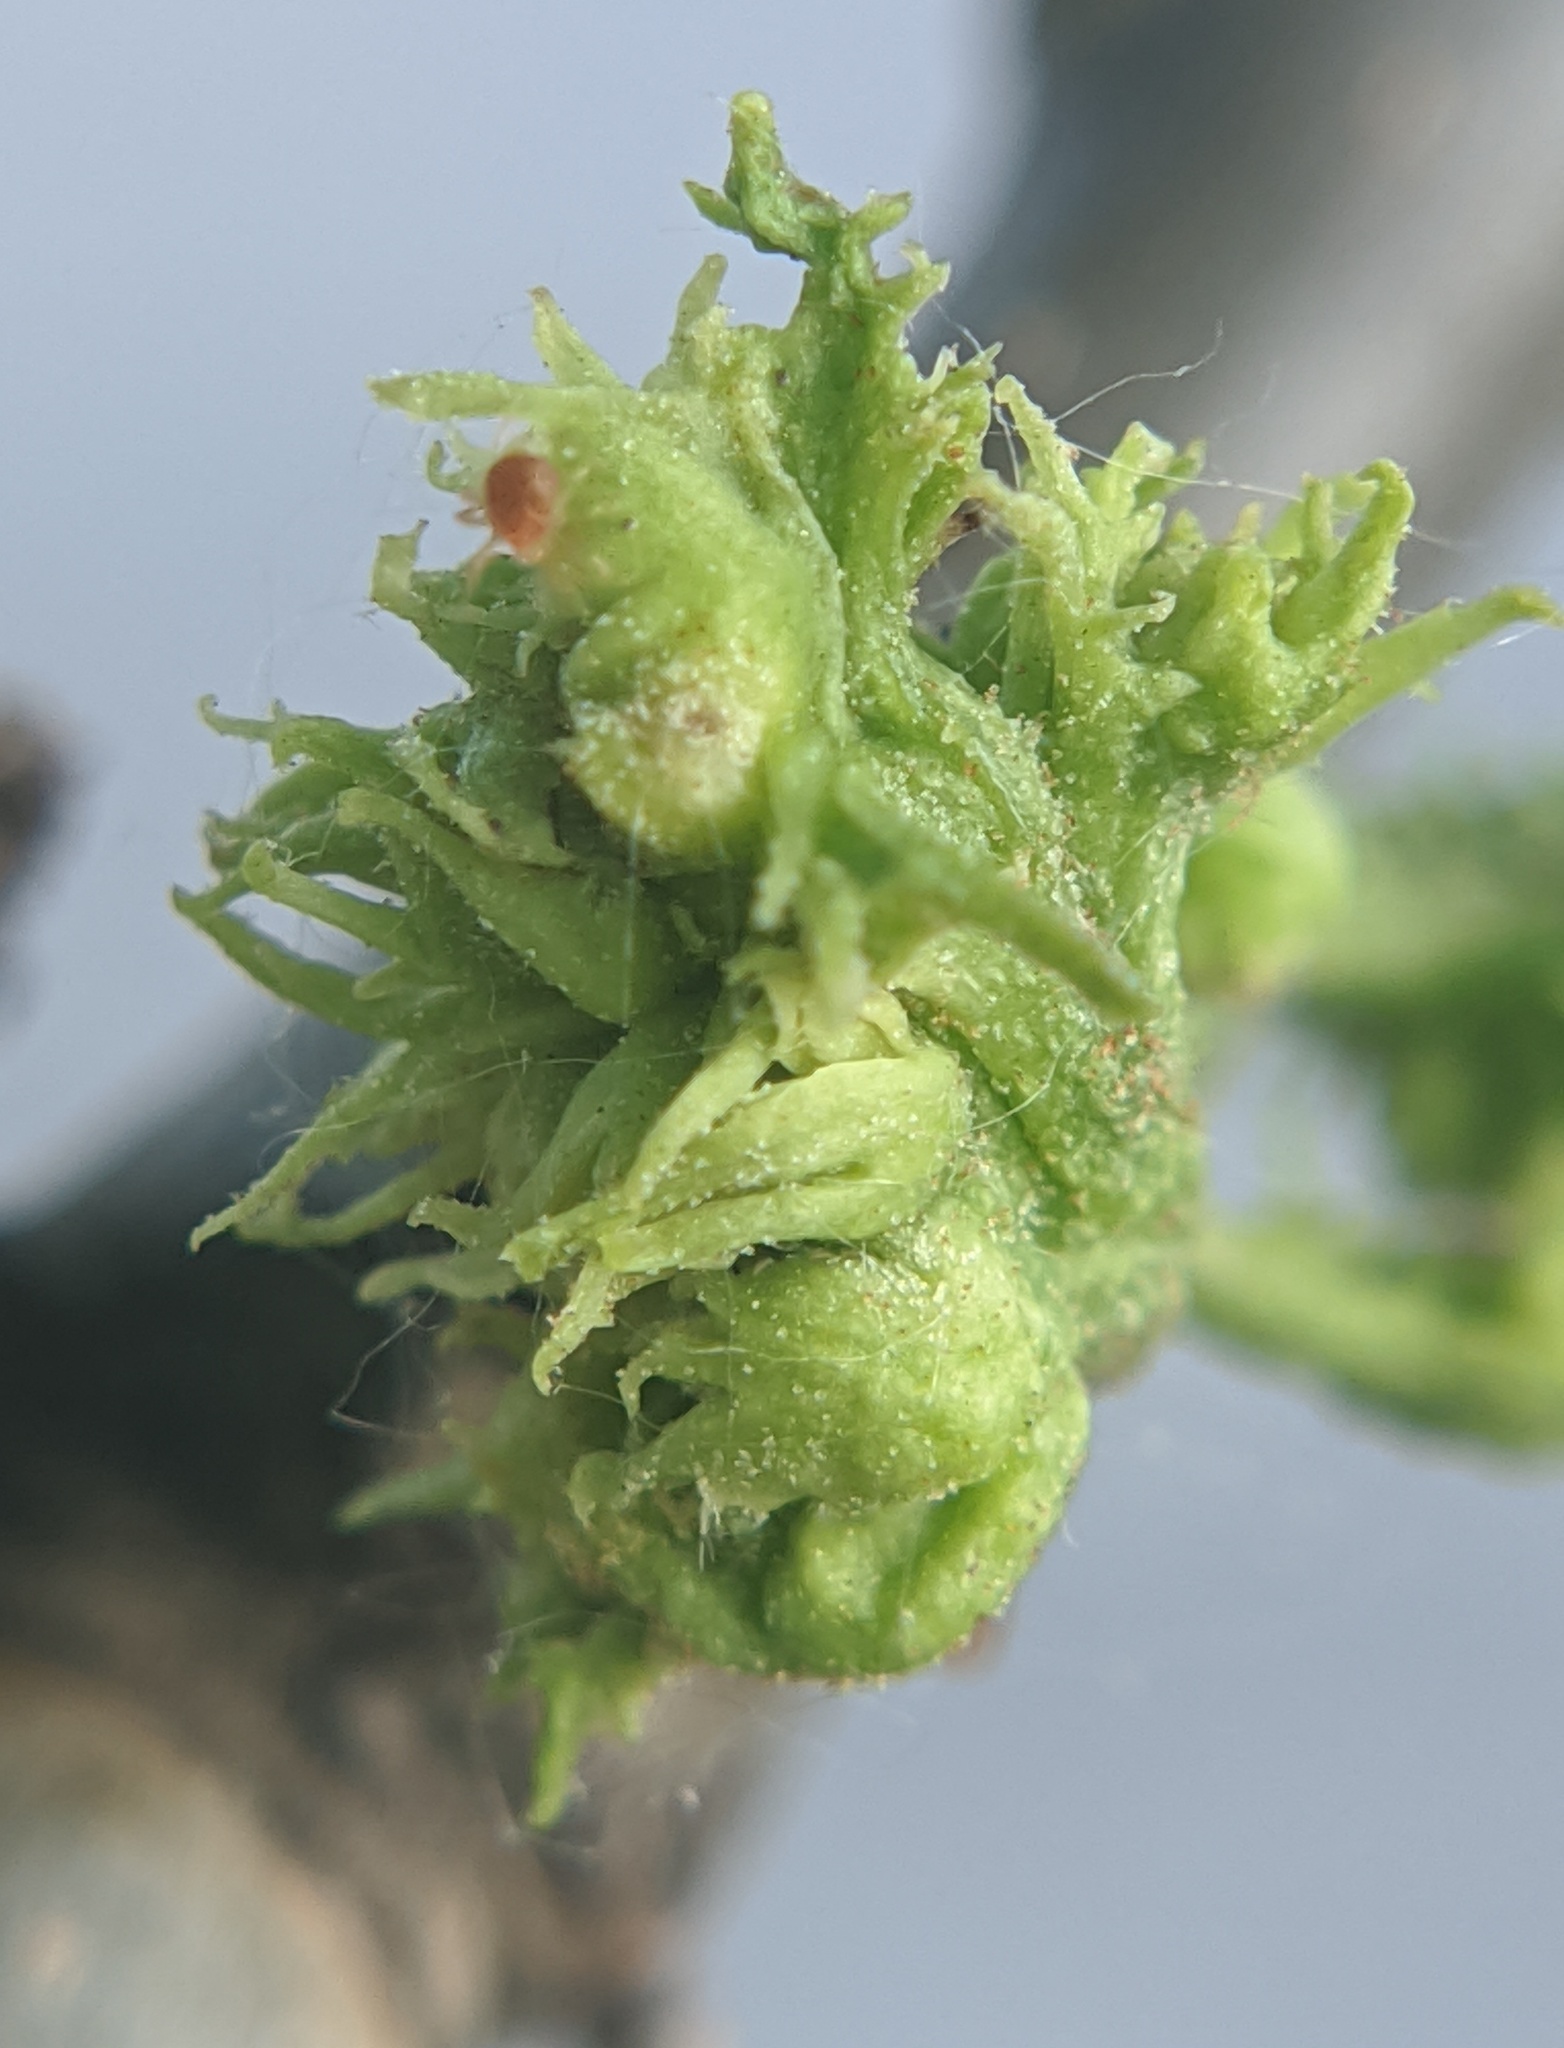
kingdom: Animalia
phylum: Arthropoda
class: Arachnida
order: Trombidiformes
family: Eriophyidae
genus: Aceria
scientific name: Aceria fraxiniflora
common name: Ash flower gall mite
